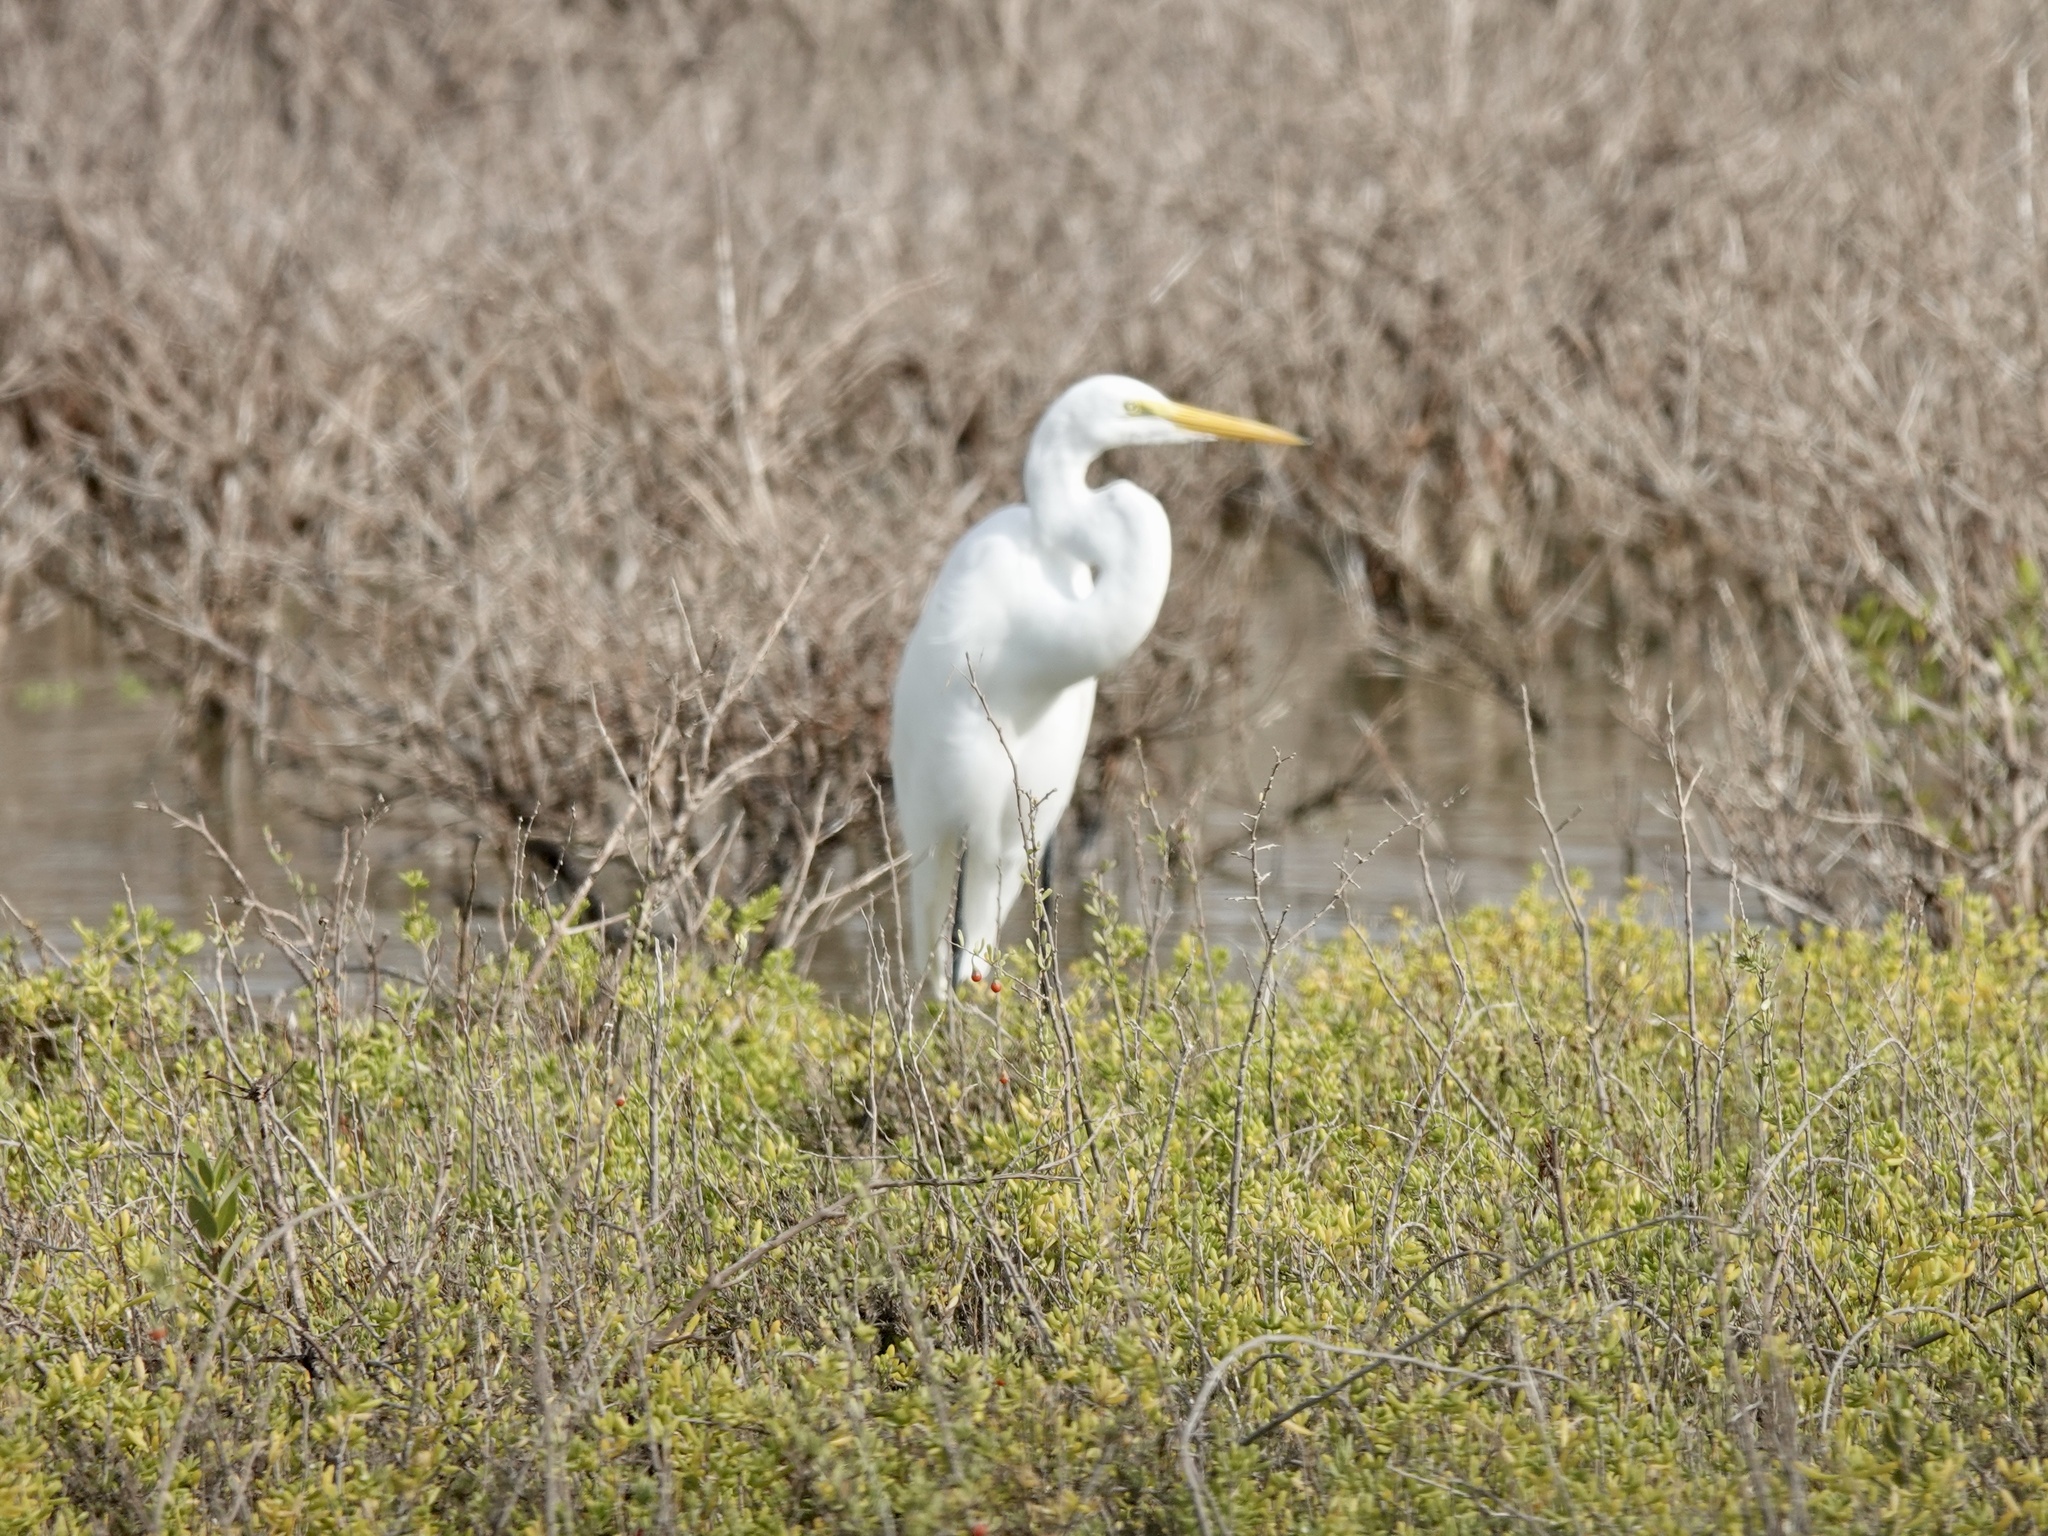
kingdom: Animalia
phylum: Chordata
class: Aves
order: Pelecaniformes
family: Ardeidae
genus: Ardea
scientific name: Ardea alba
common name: Great egret
